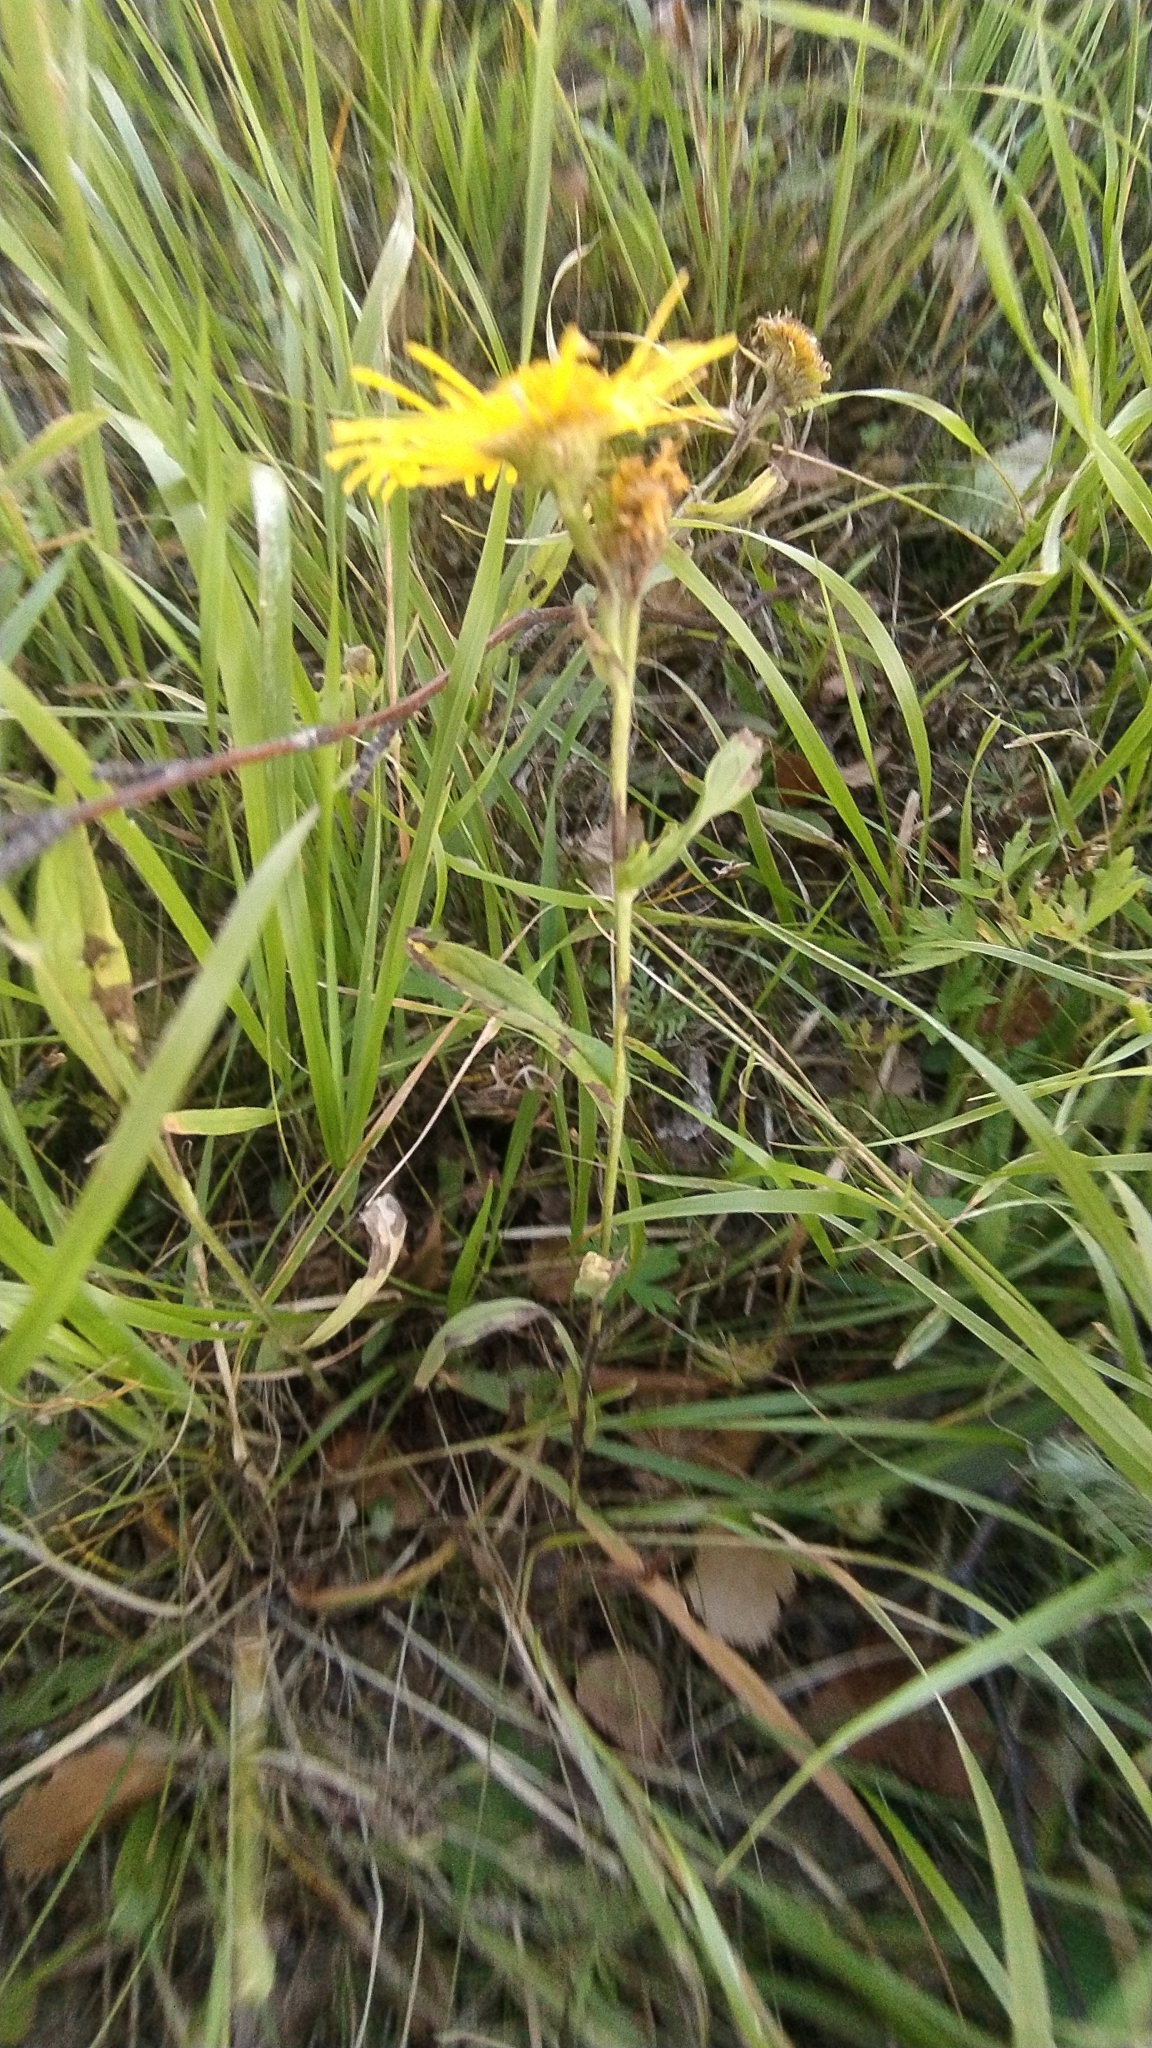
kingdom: Plantae
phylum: Tracheophyta
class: Magnoliopsida
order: Asterales
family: Asteraceae
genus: Pentanema
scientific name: Pentanema britannicum
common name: British elecampane
